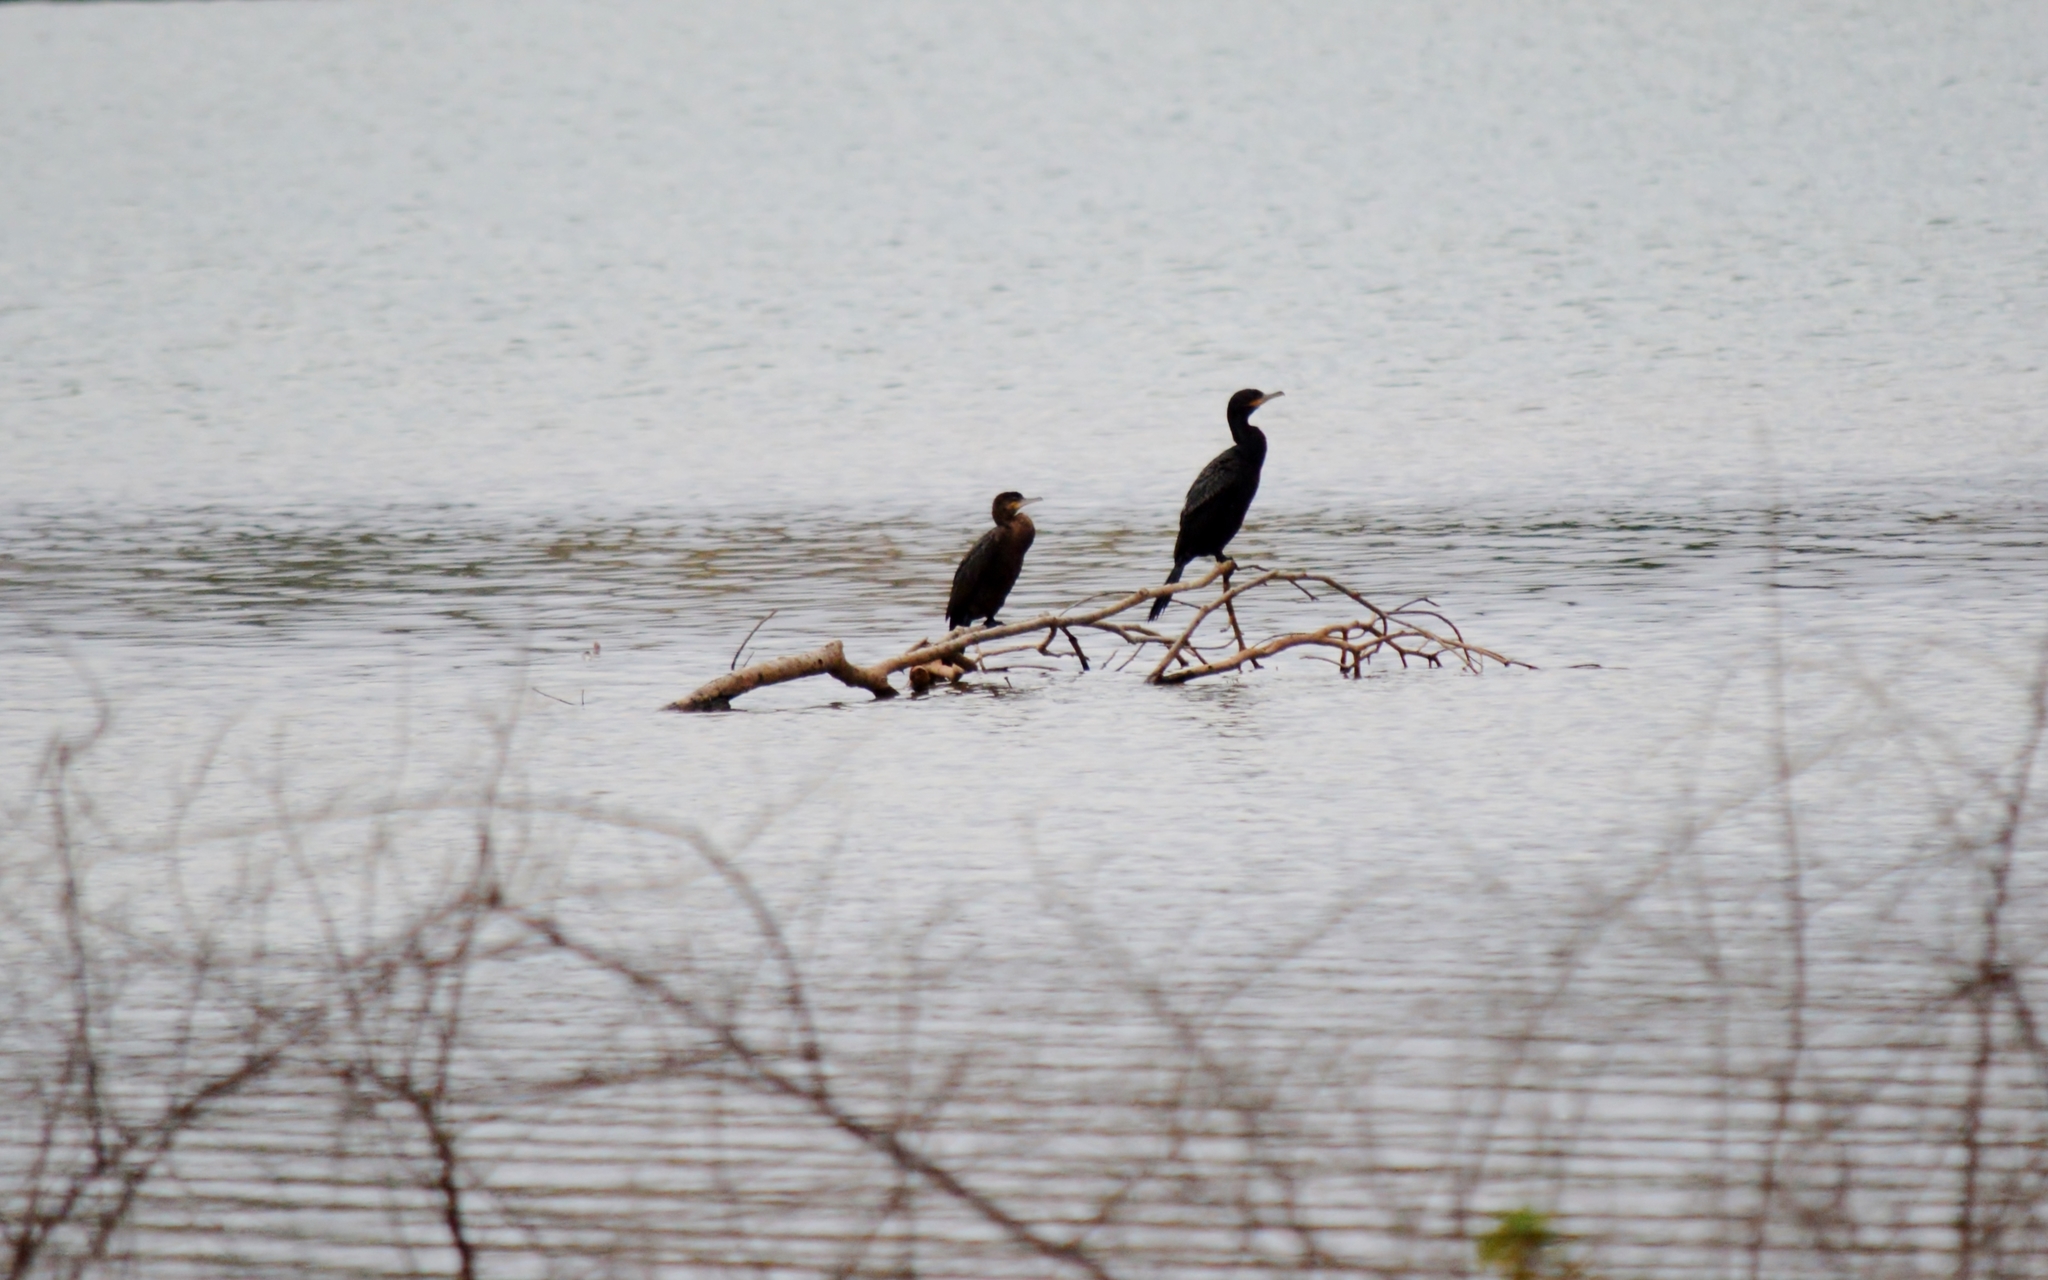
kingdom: Animalia
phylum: Chordata
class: Aves
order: Suliformes
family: Phalacrocoracidae
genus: Phalacrocorax
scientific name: Phalacrocorax brasilianus
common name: Neotropic cormorant
